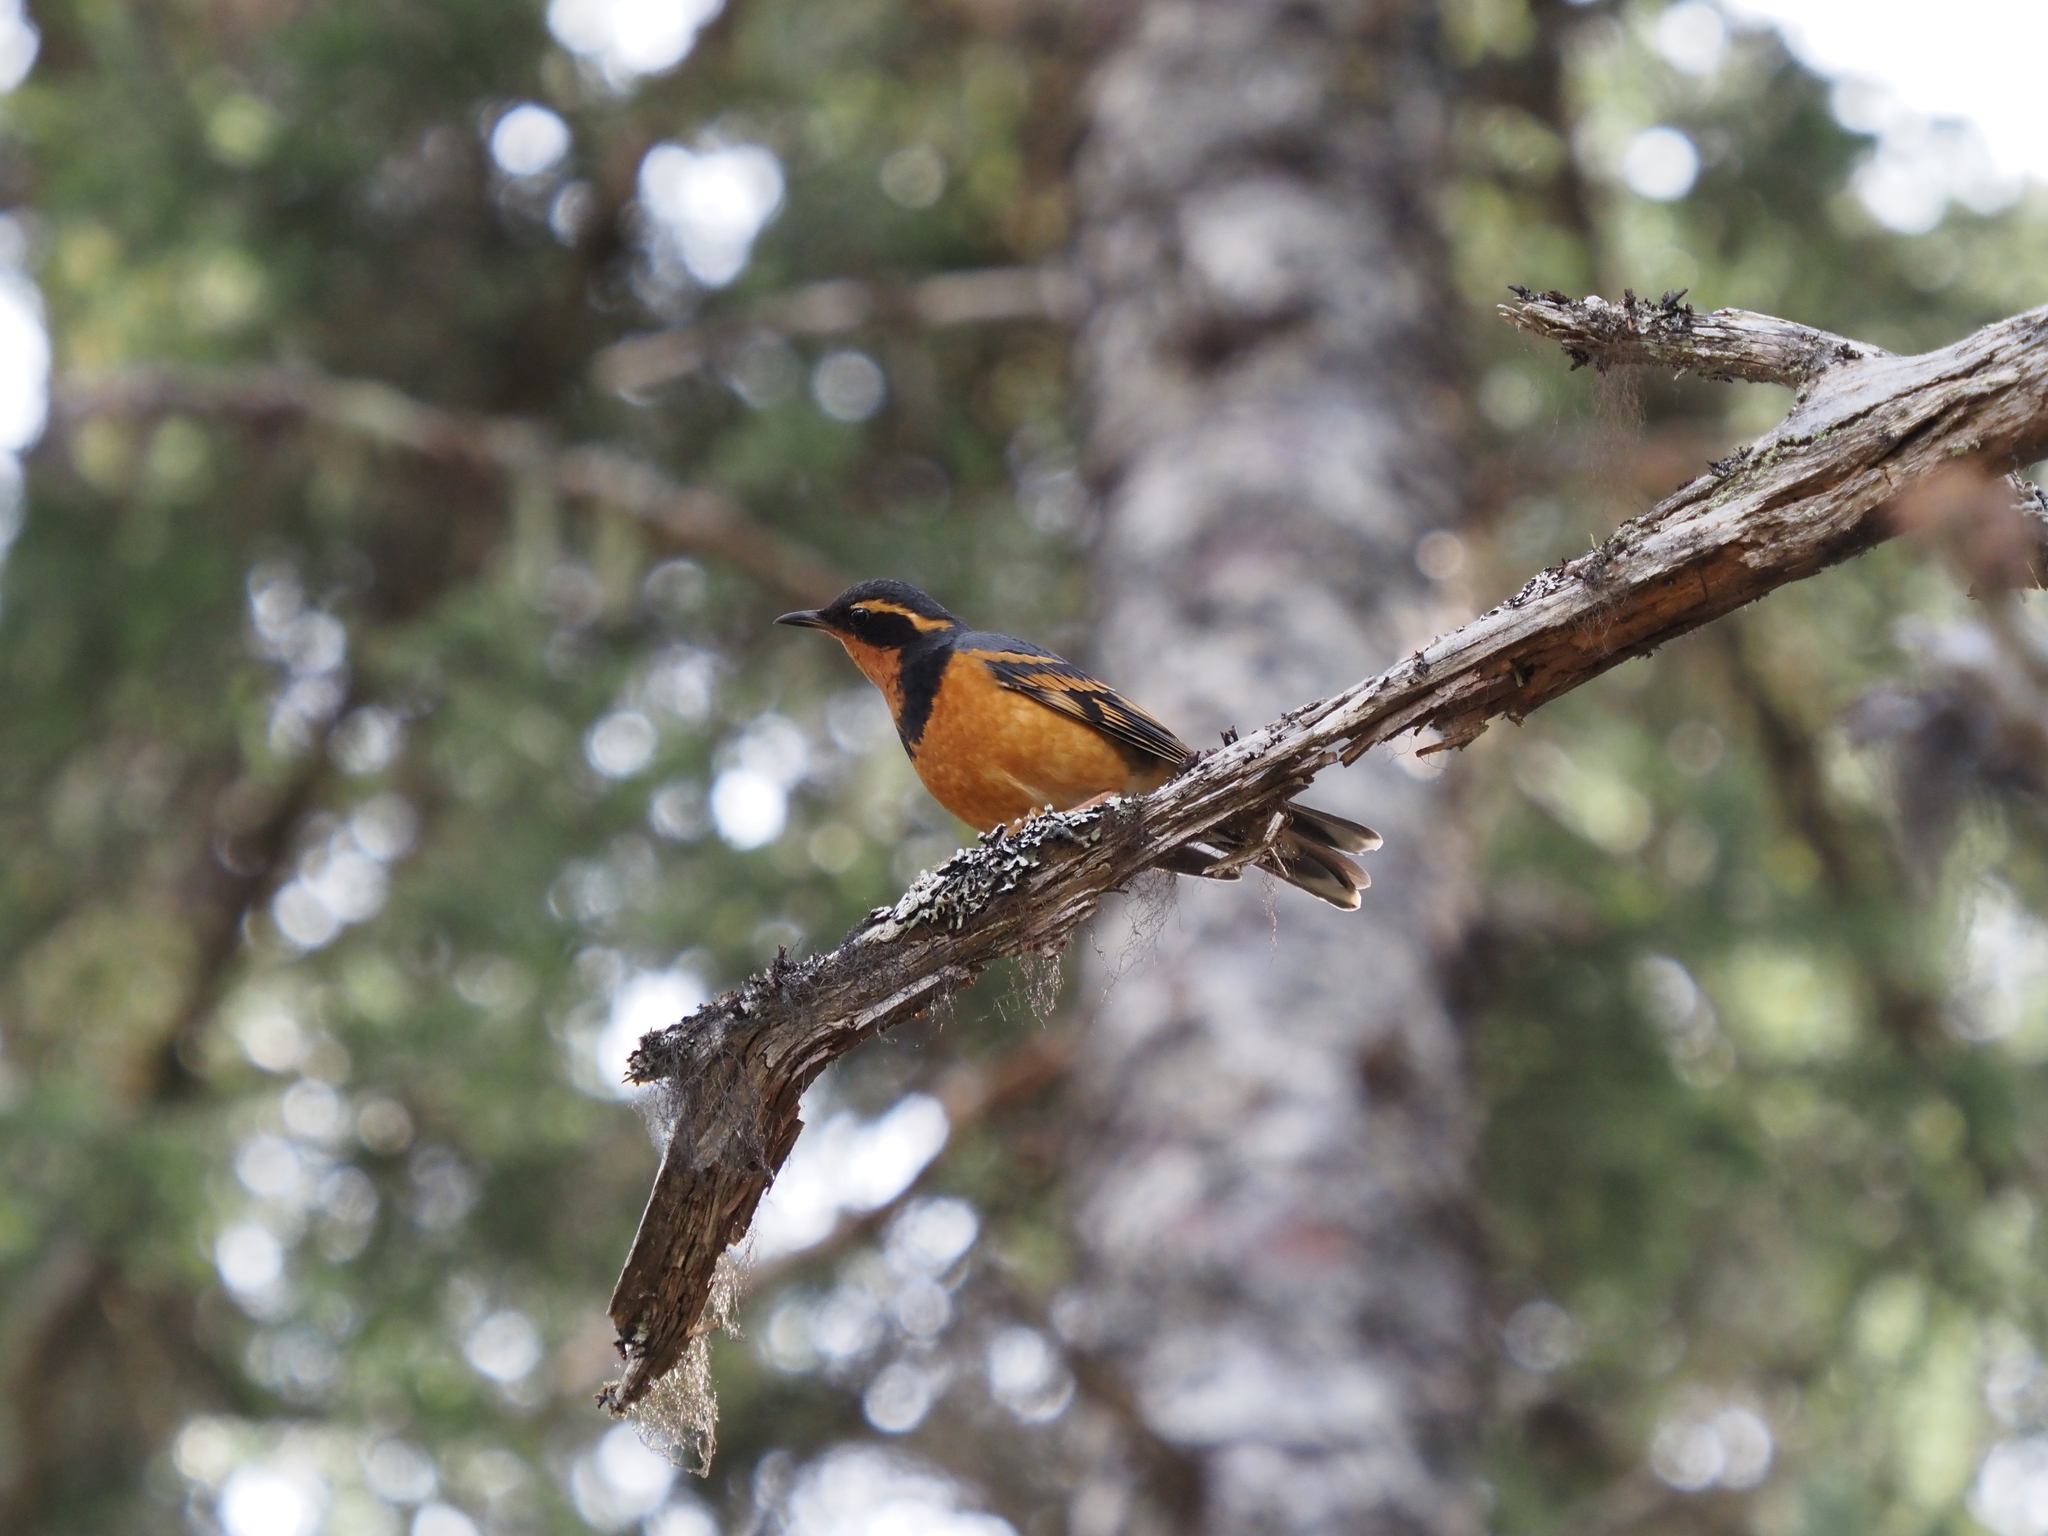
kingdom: Animalia
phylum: Chordata
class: Aves
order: Passeriformes
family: Turdidae
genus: Ixoreus
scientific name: Ixoreus naevius
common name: Varied thrush
